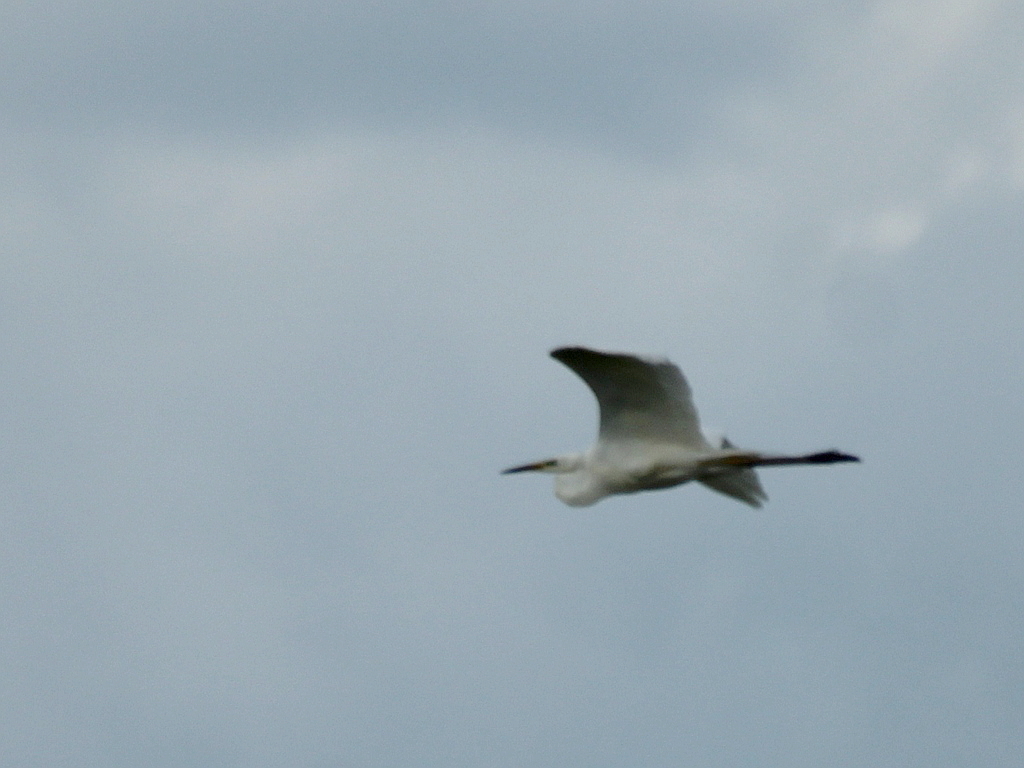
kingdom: Animalia
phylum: Chordata
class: Aves
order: Pelecaniformes
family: Ardeidae
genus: Ardea
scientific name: Ardea alba
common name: Great egret
